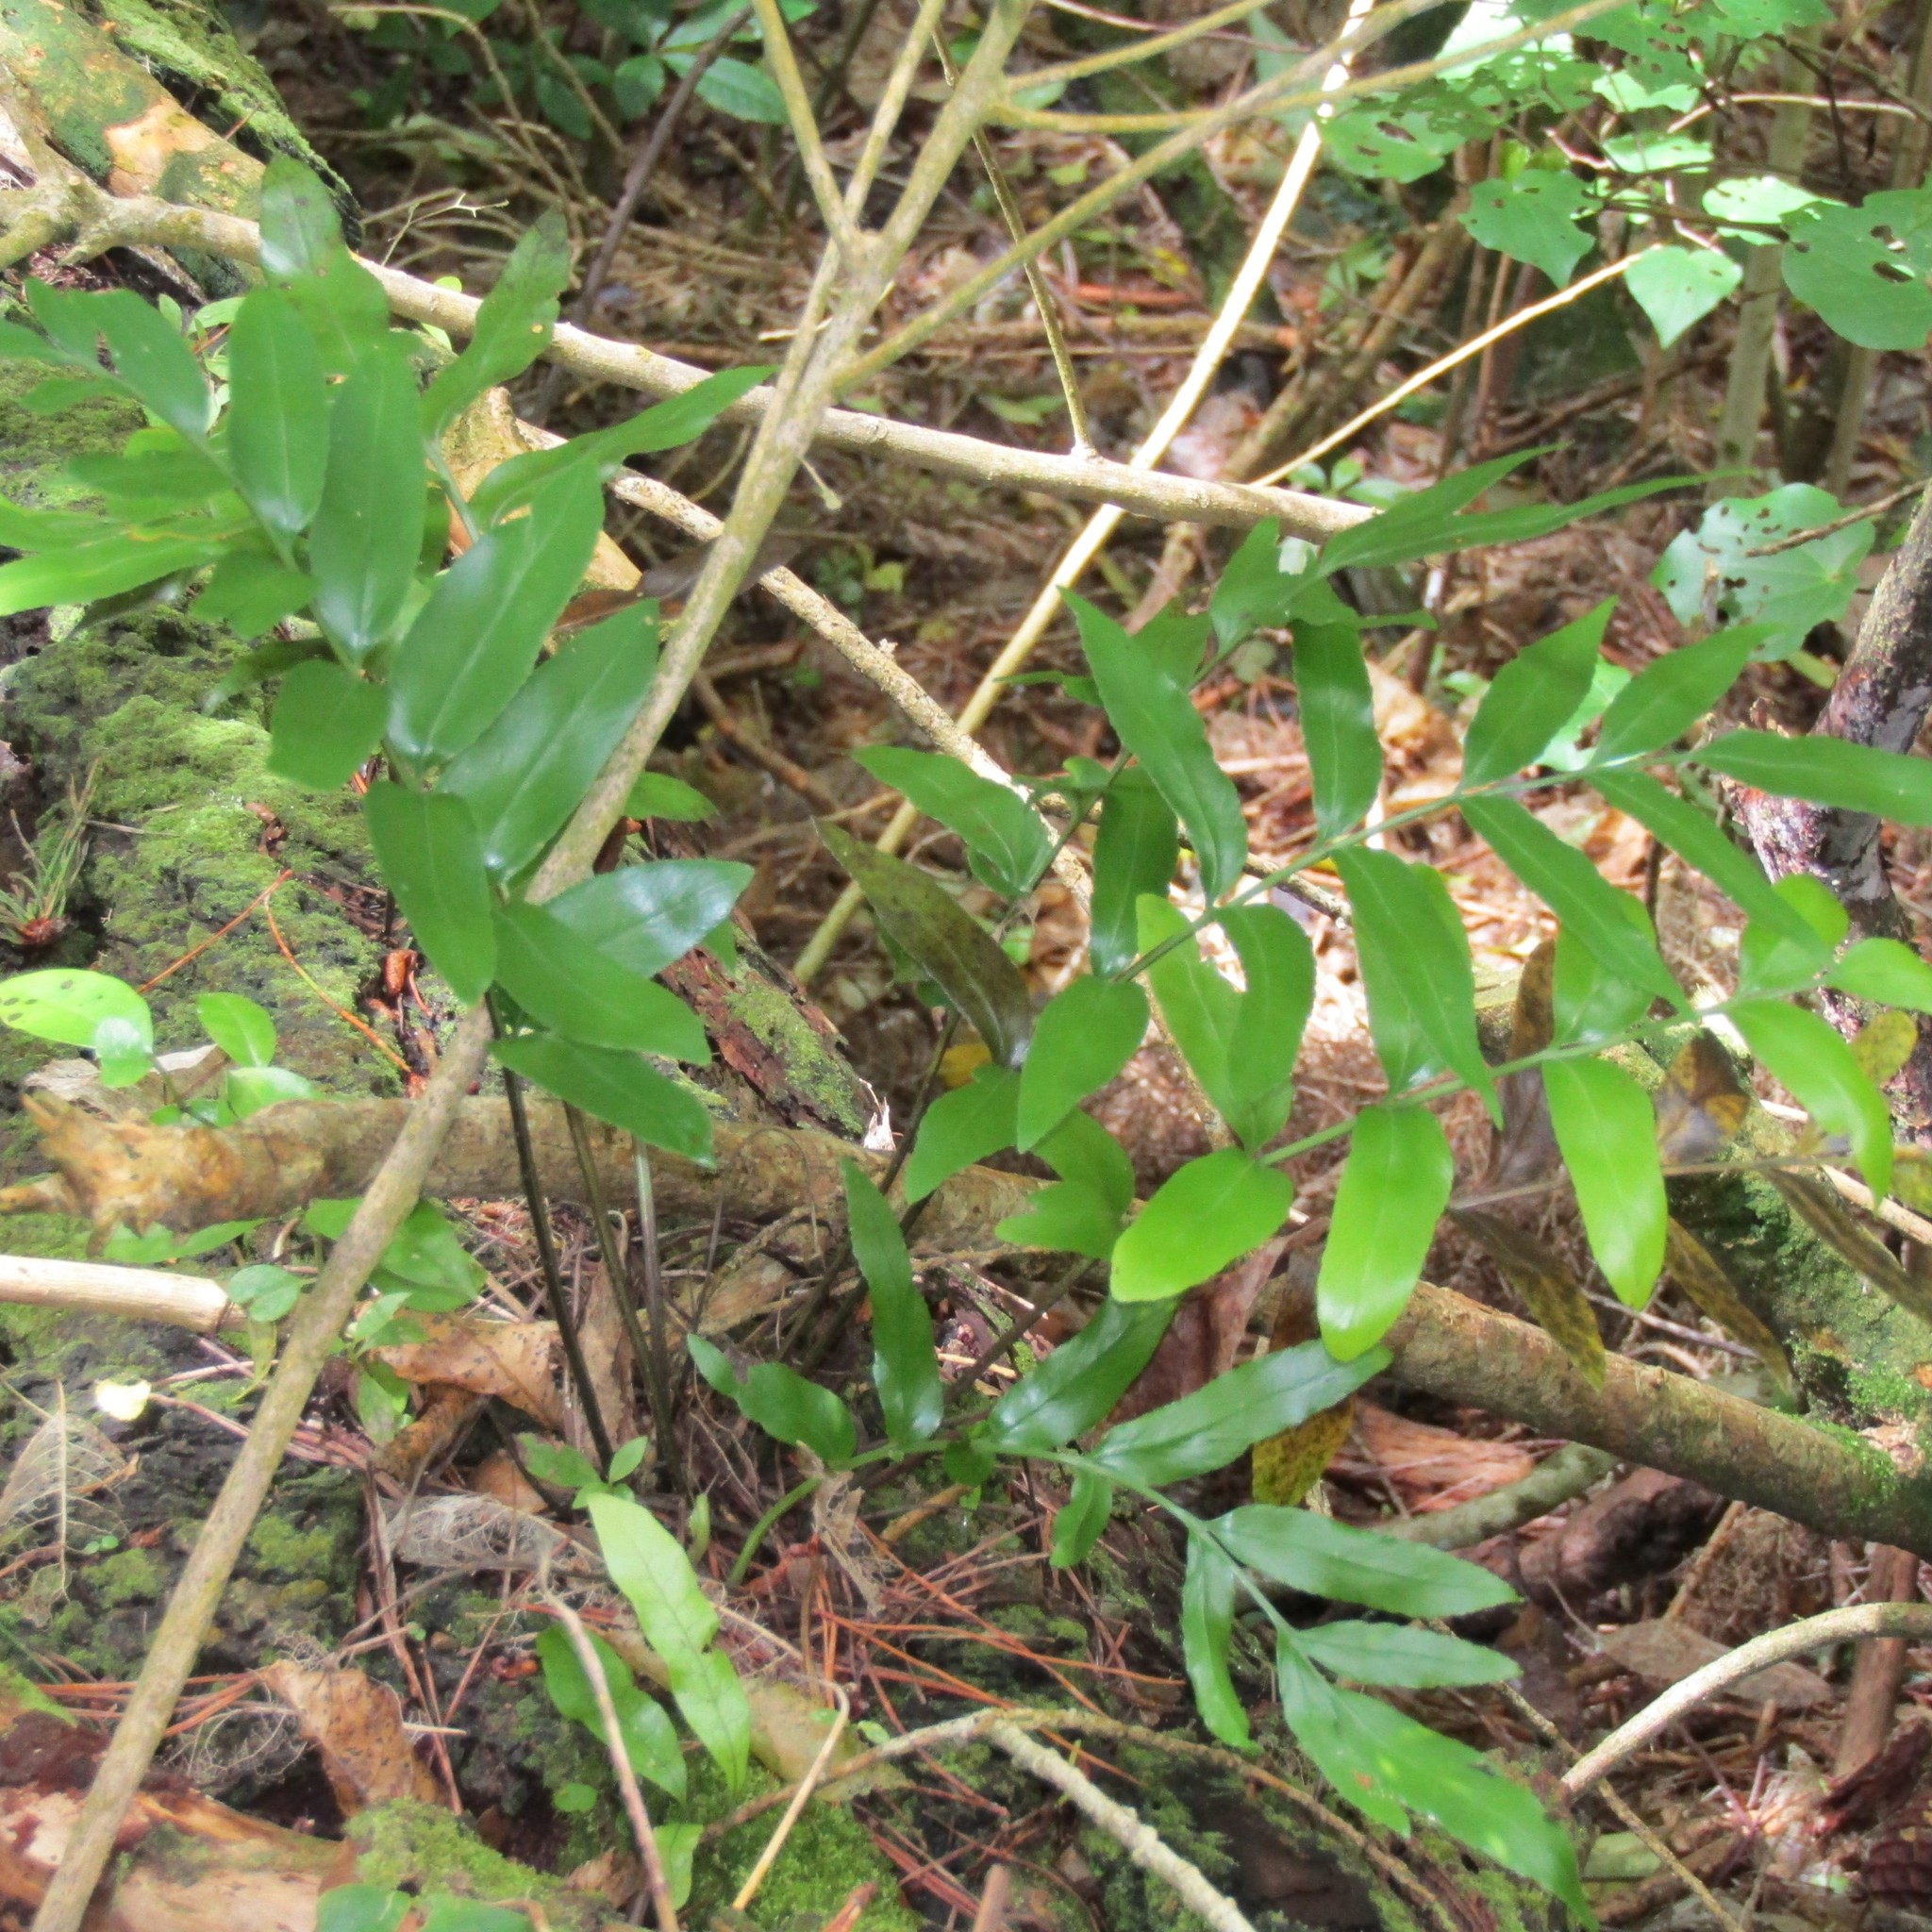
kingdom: Plantae
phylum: Tracheophyta
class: Polypodiopsida
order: Polypodiales
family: Aspleniaceae
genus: Asplenium
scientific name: Asplenium oblongifolium
